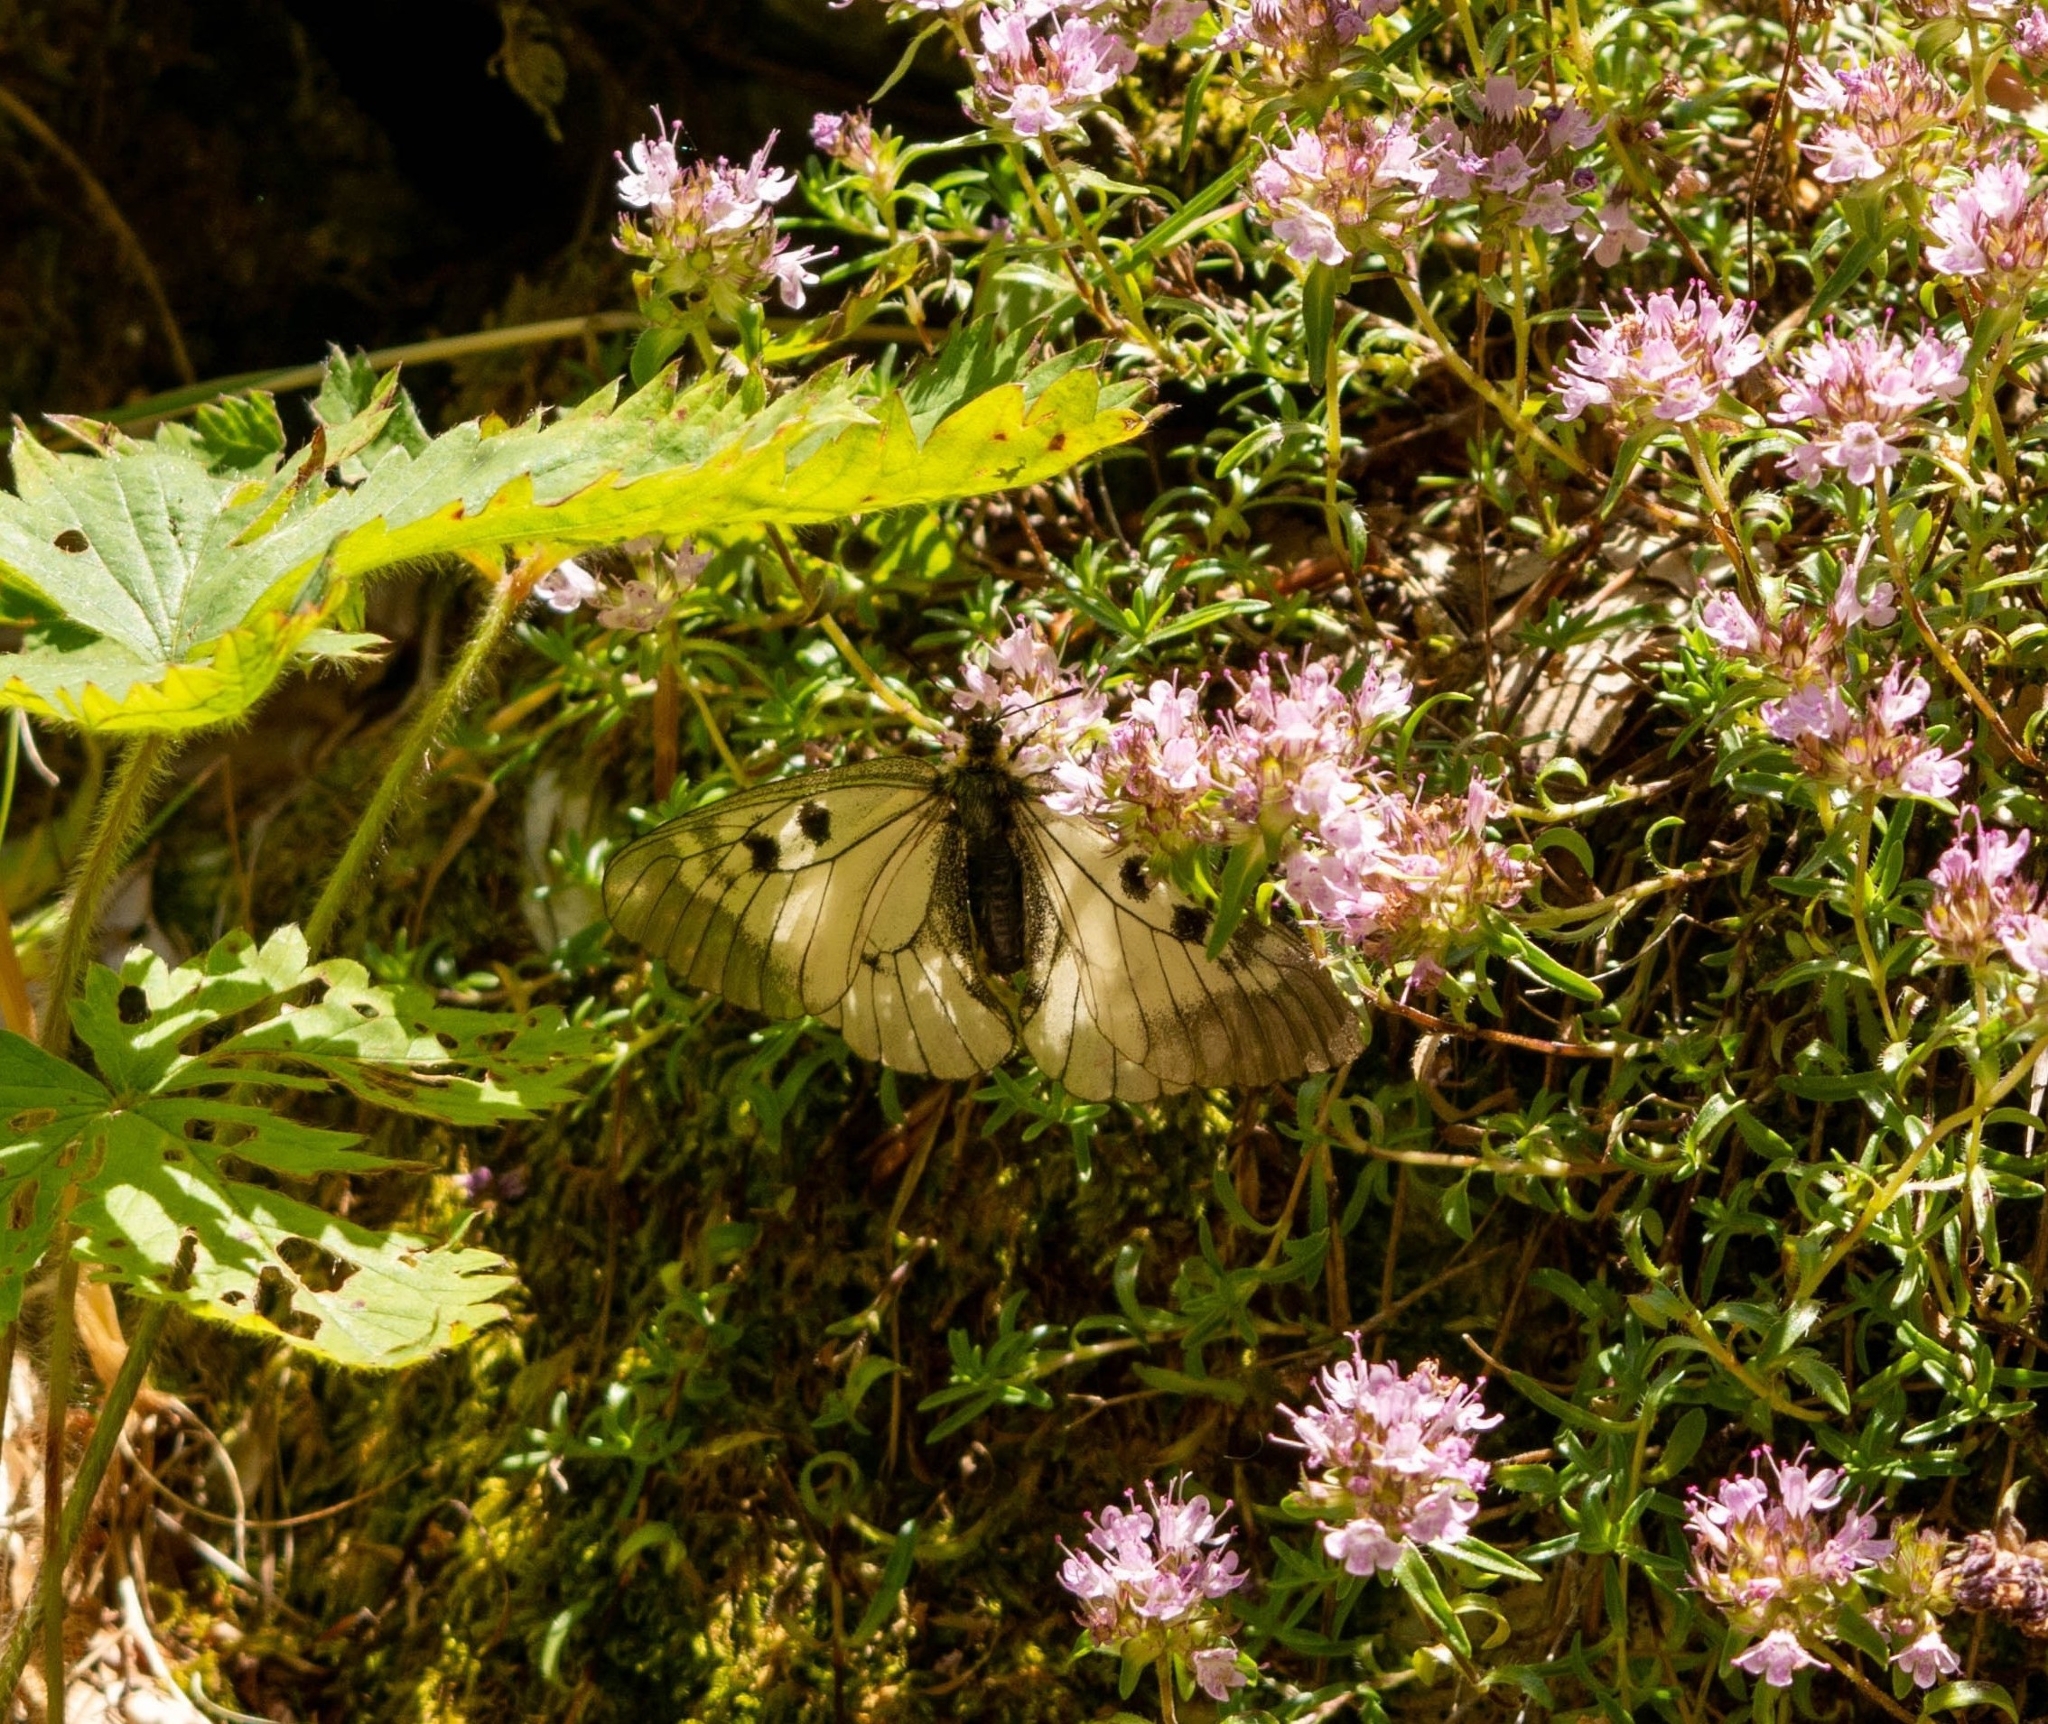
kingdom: Animalia
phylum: Arthropoda
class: Insecta
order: Lepidoptera
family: Papilionidae
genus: Parnassius
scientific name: Parnassius mnemosyne
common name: Clouded apollo
